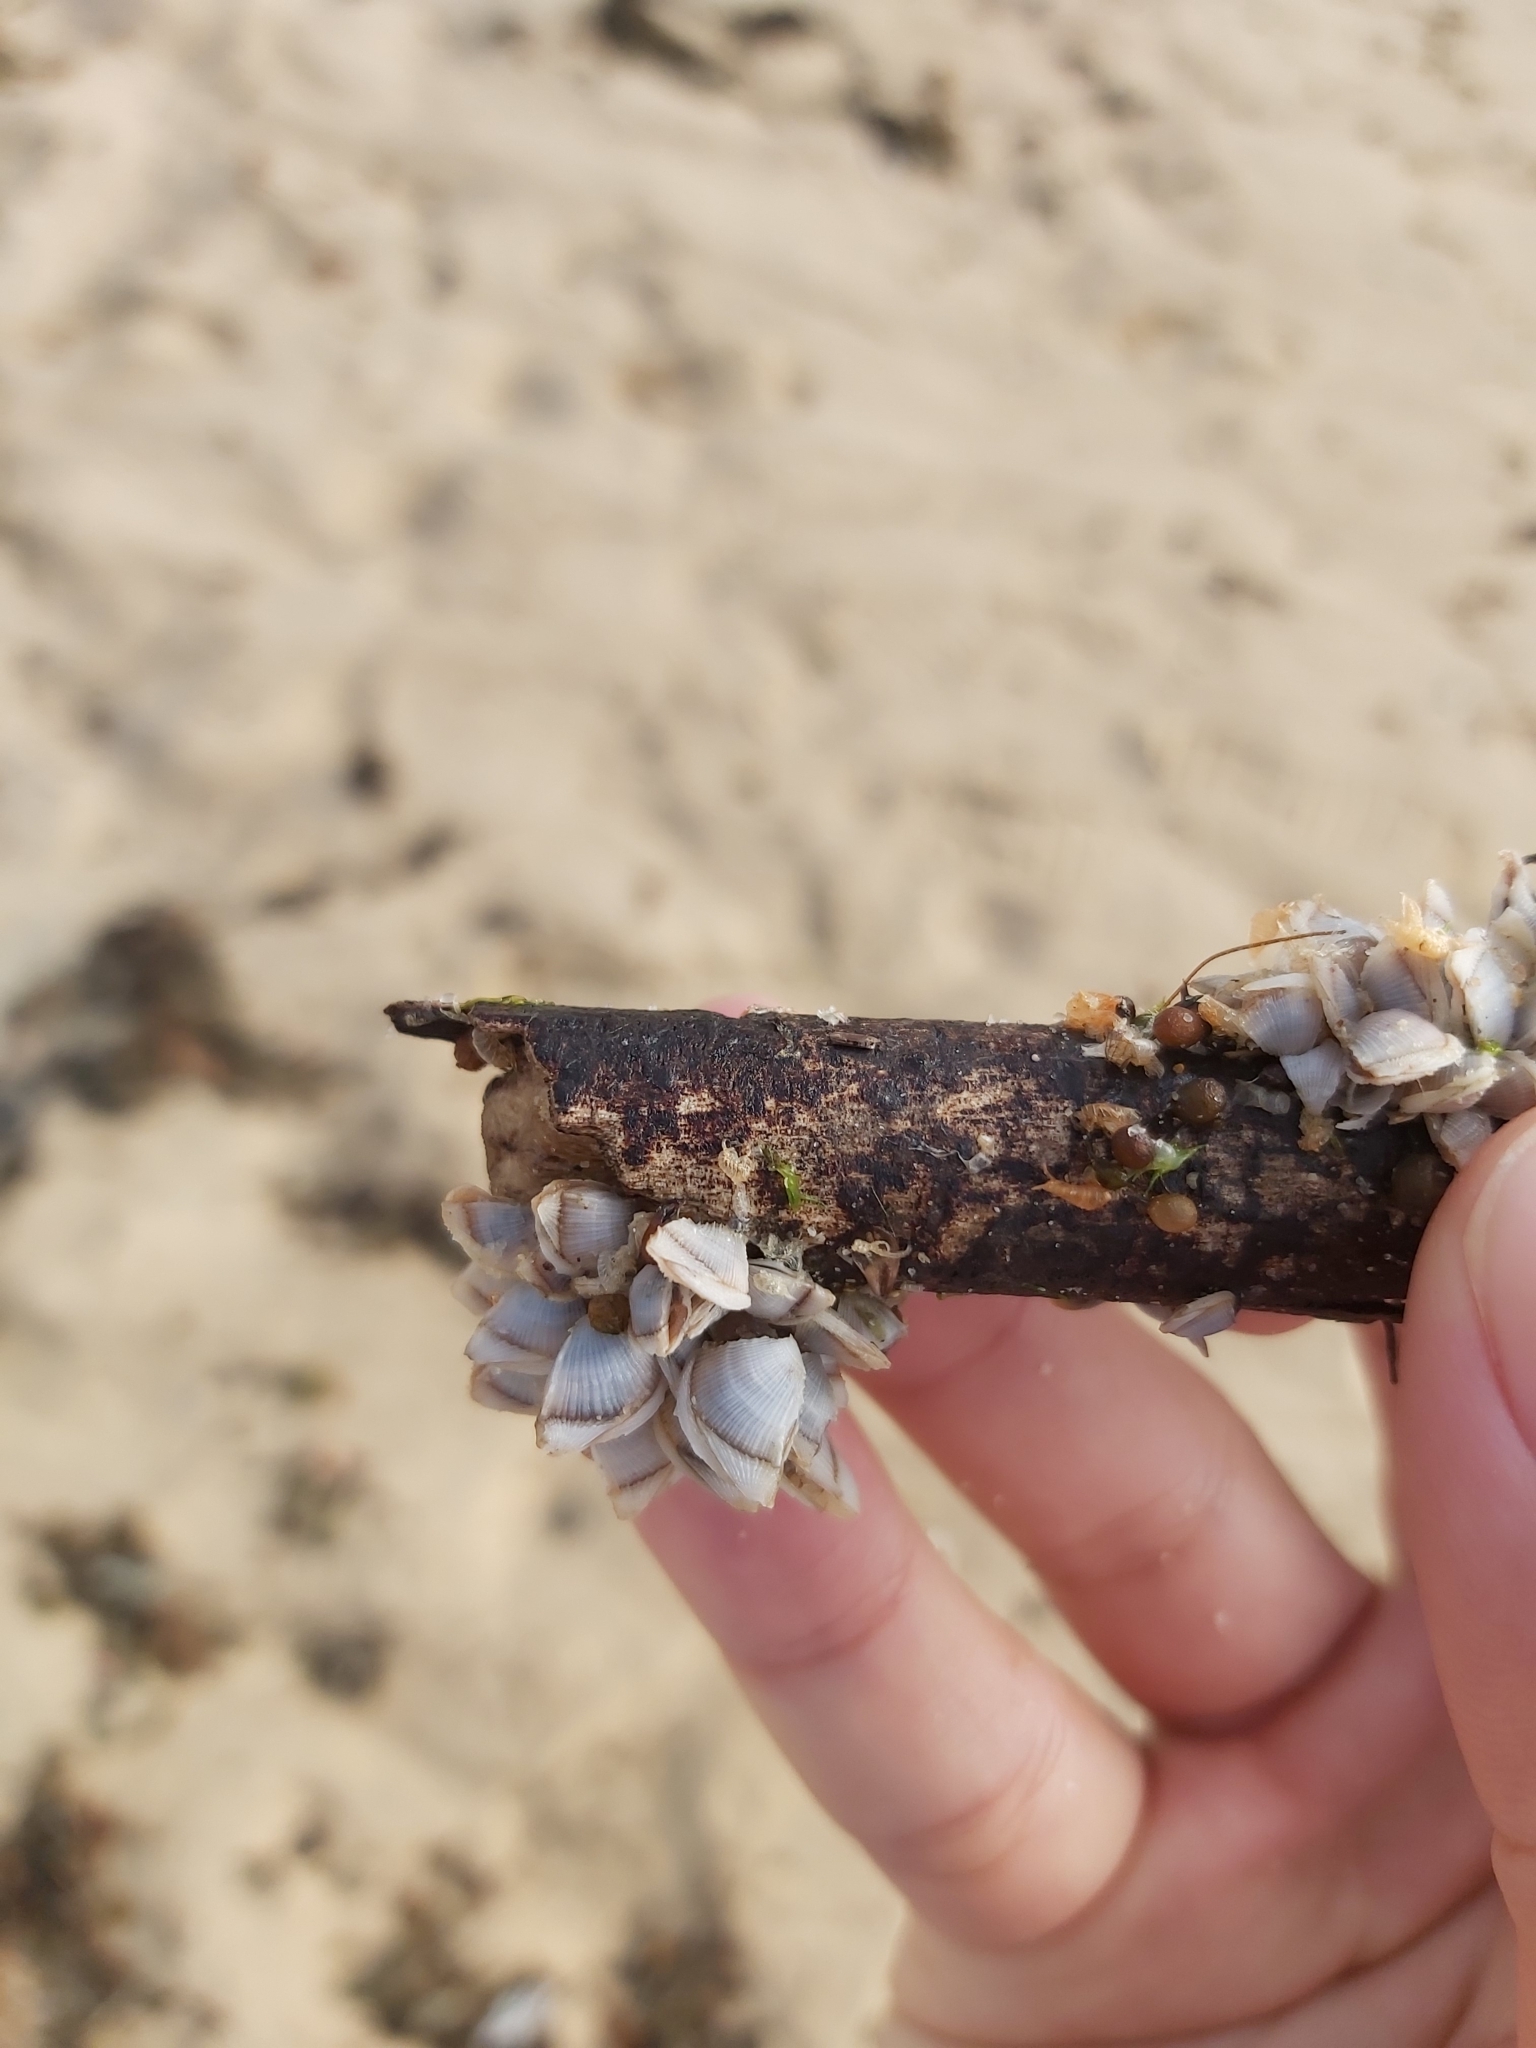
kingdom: Animalia
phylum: Arthropoda
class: Maxillopoda
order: Pedunculata
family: Lepadidae
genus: Lepas
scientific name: Lepas pectinata
